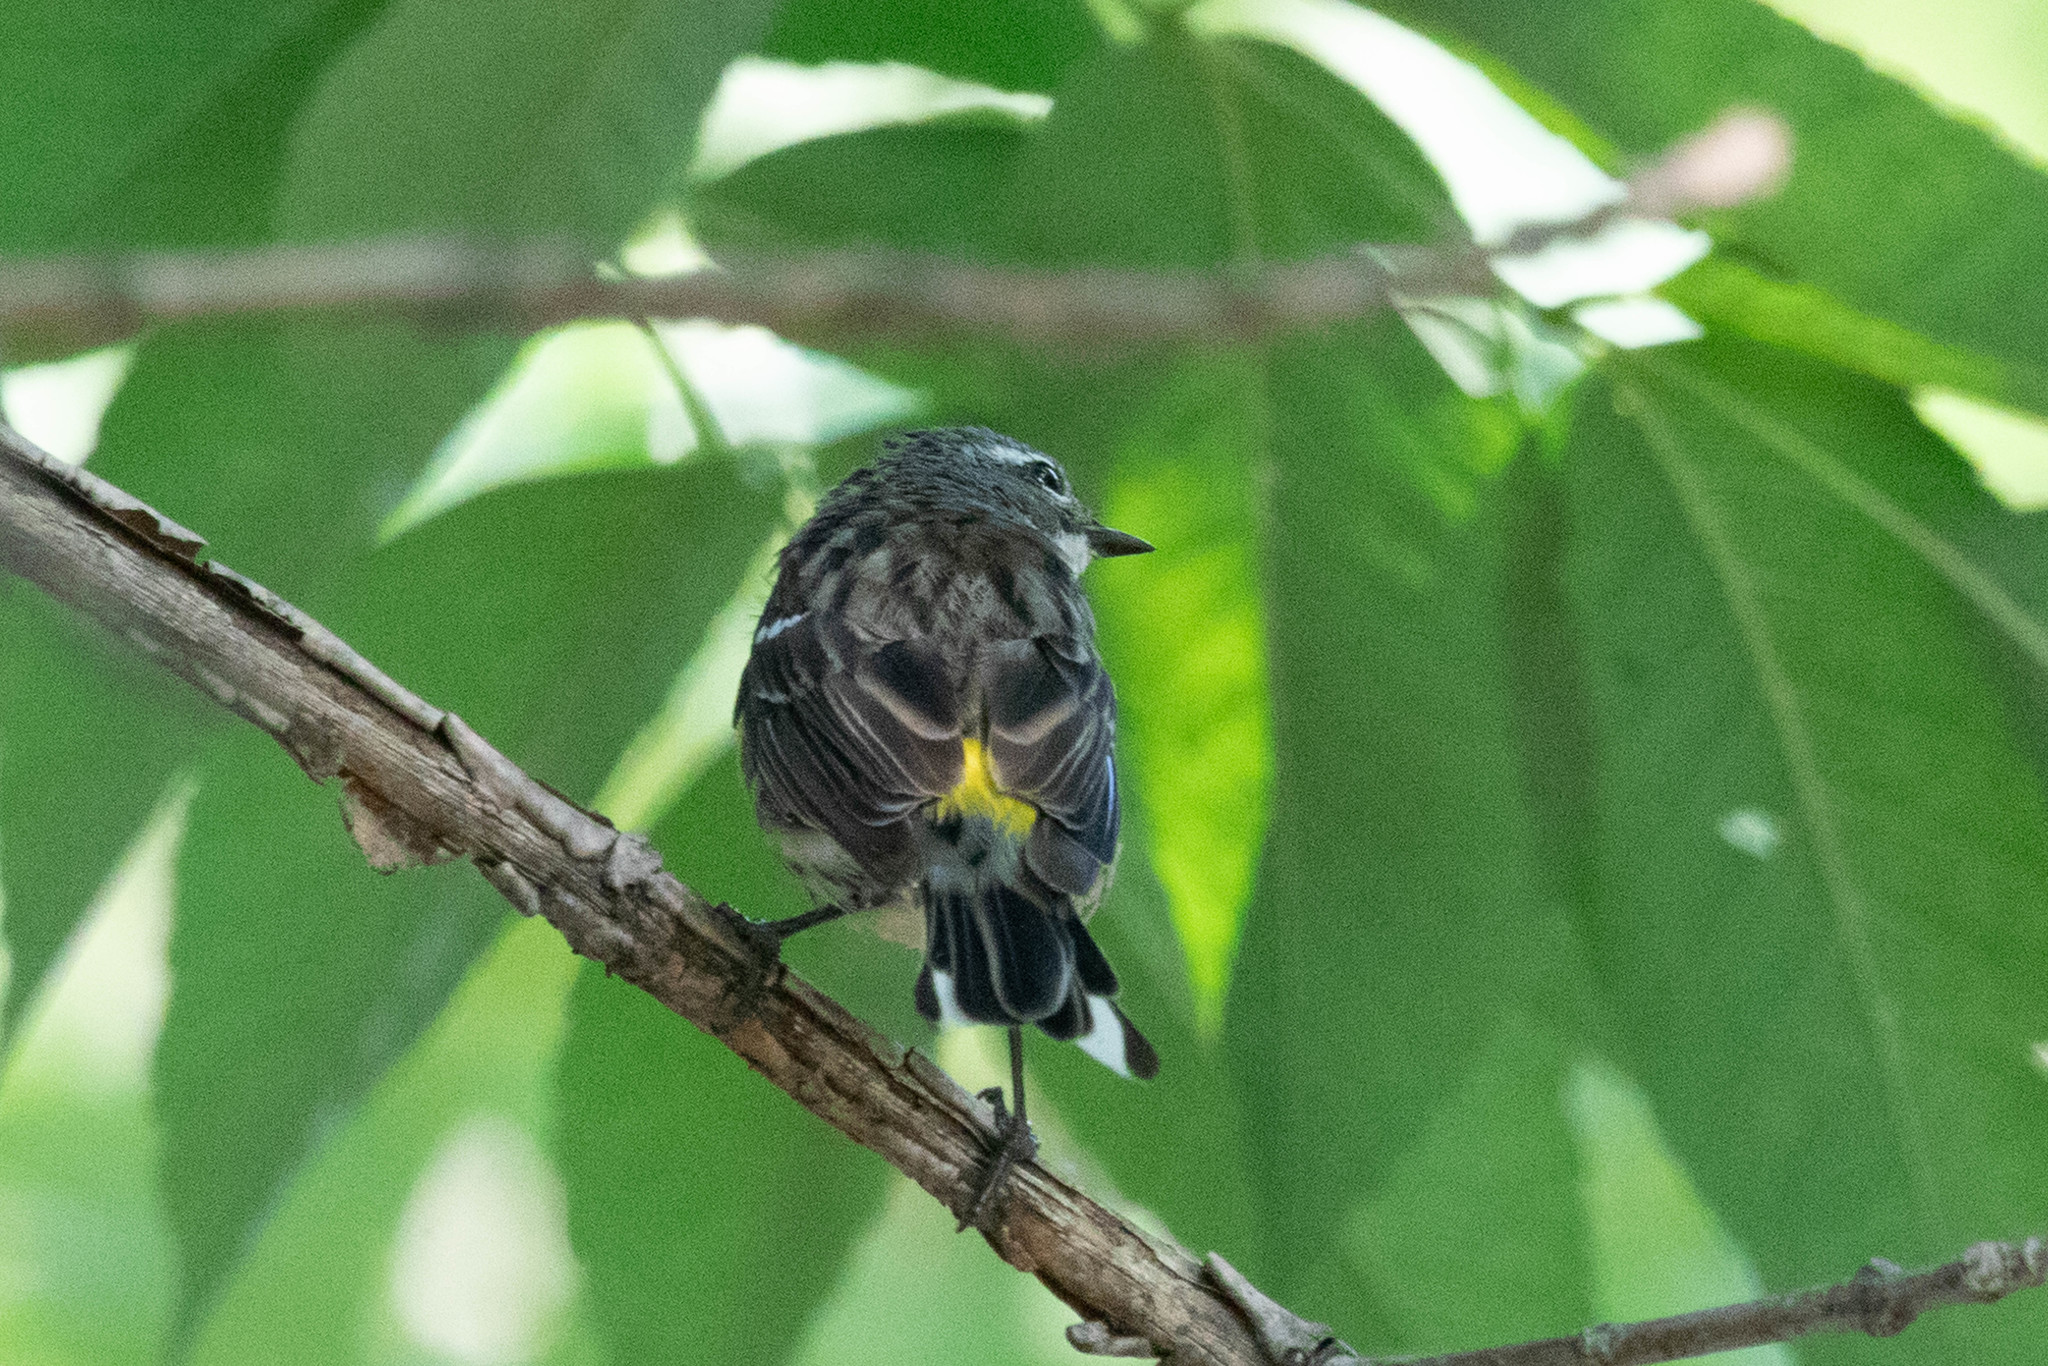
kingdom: Animalia
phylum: Chordata
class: Aves
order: Passeriformes
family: Parulidae
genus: Setophaga
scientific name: Setophaga coronata
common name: Myrtle warbler
